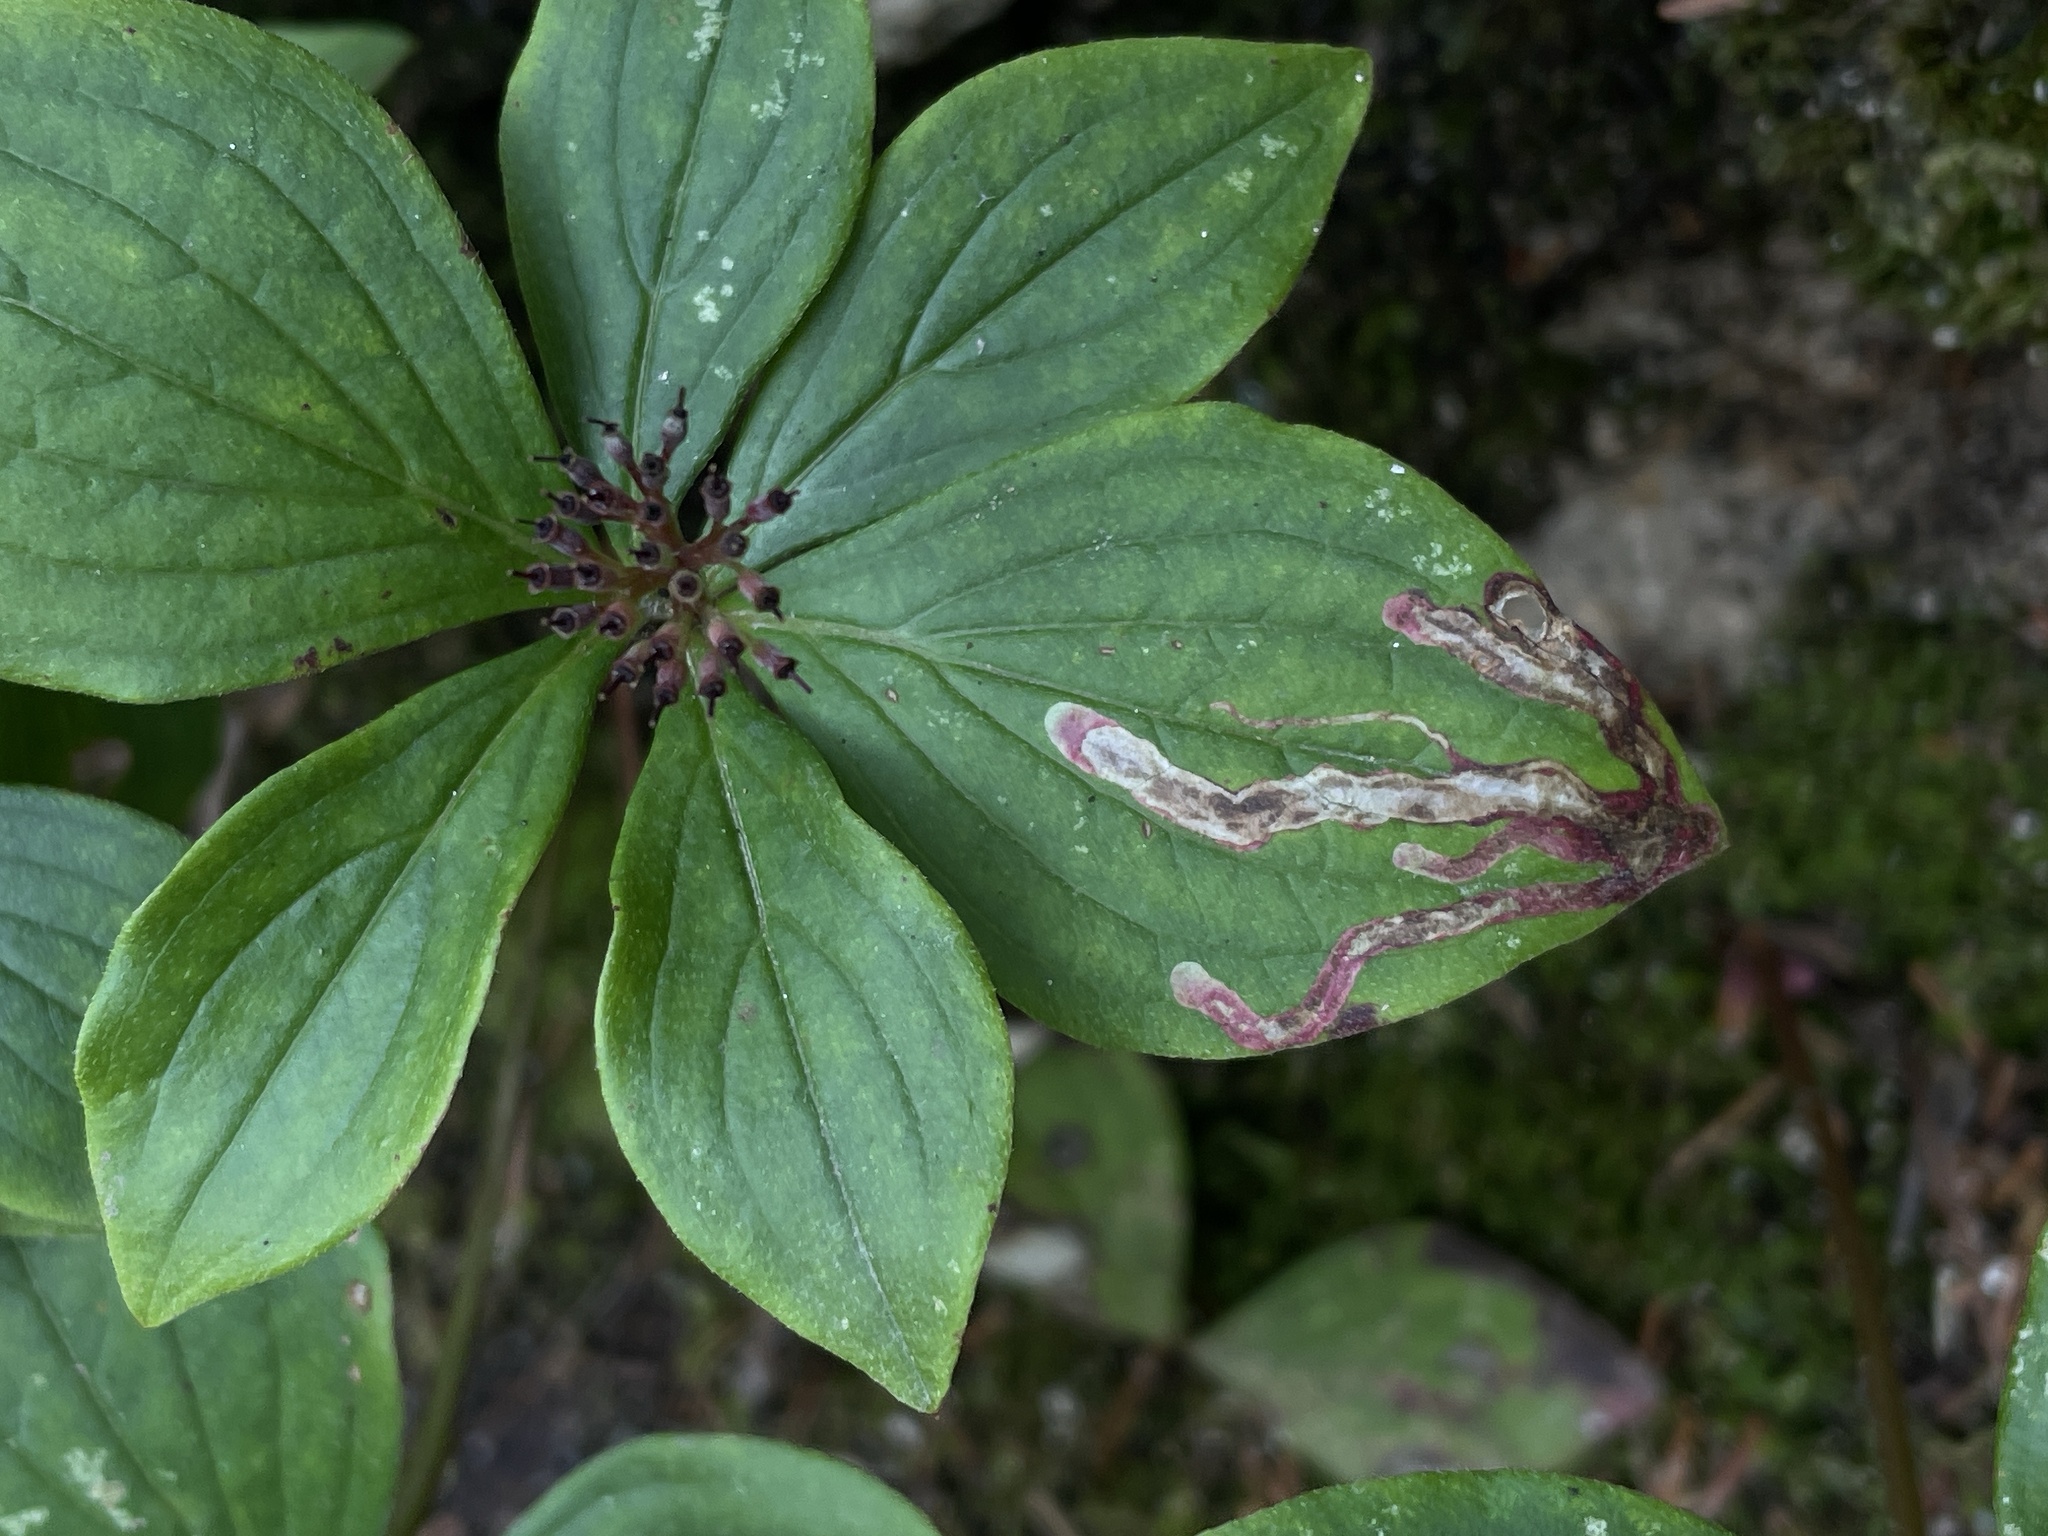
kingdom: Animalia
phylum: Arthropoda
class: Insecta
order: Diptera
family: Agromyzidae
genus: Phytomyza
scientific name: Phytomyza agromyzina
